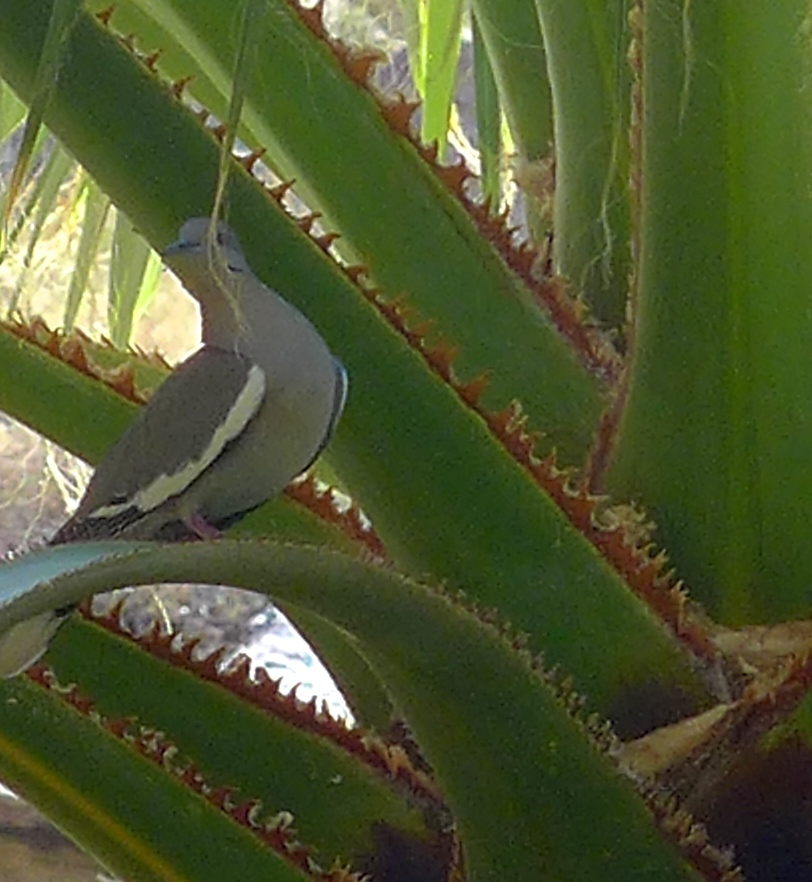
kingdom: Animalia
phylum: Chordata
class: Aves
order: Columbiformes
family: Columbidae
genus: Zenaida
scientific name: Zenaida asiatica
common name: White-winged dove
